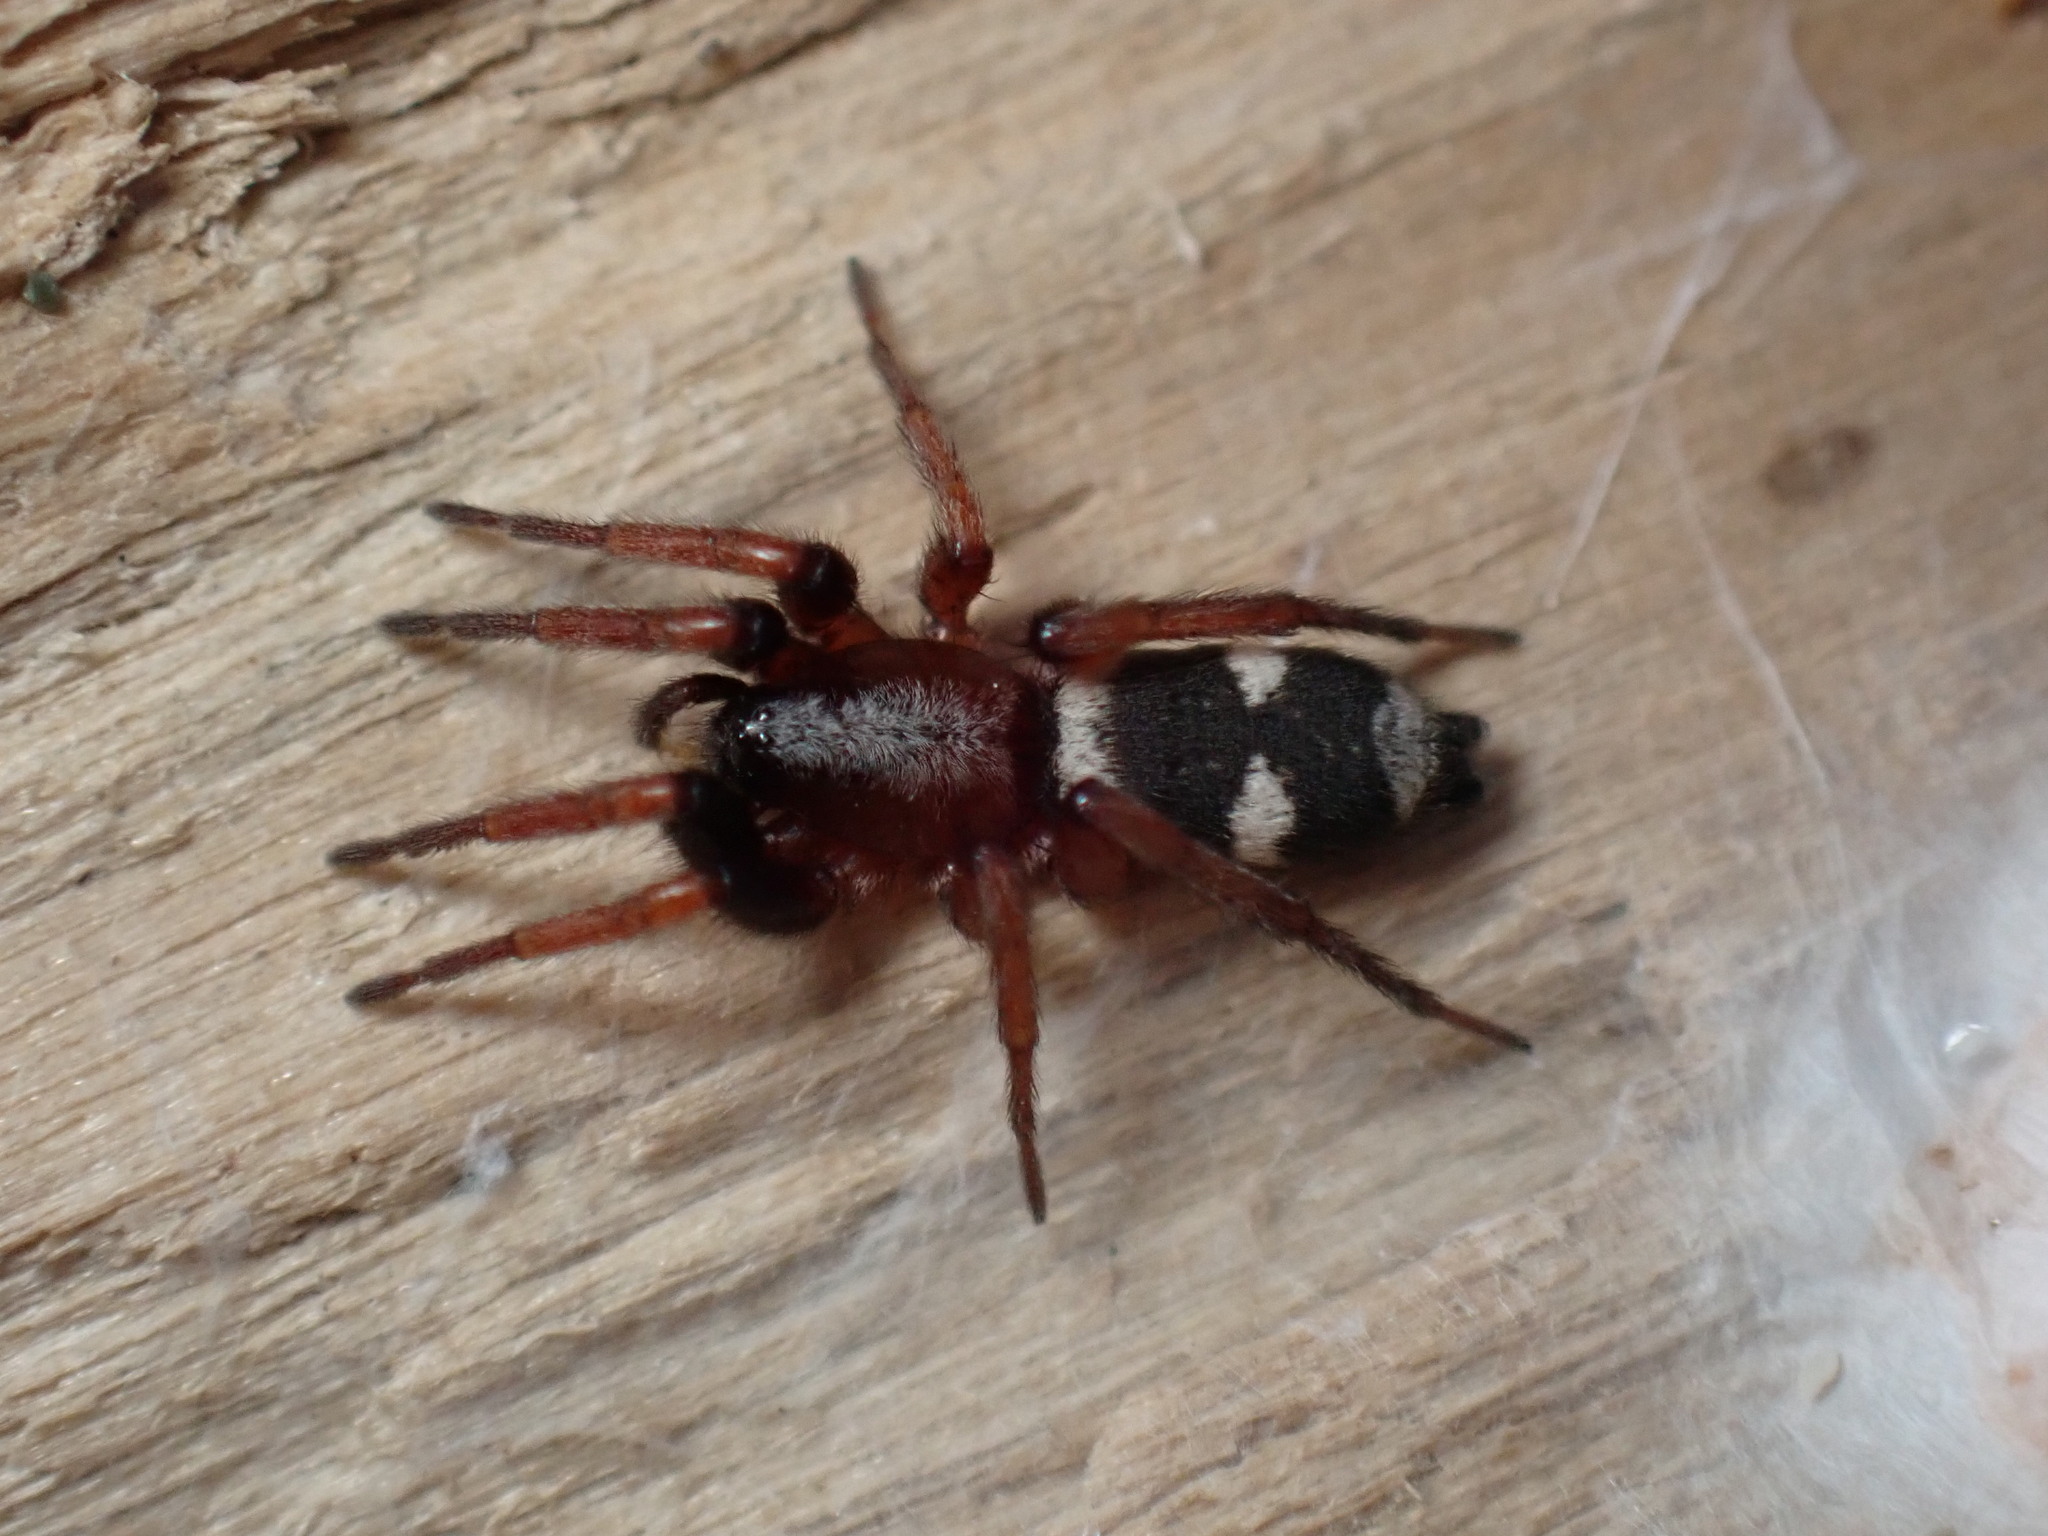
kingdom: Animalia
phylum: Arthropoda
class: Arachnida
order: Araneae
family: Gnaphosidae
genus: Sergiolus
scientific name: Sergiolus columbianus
